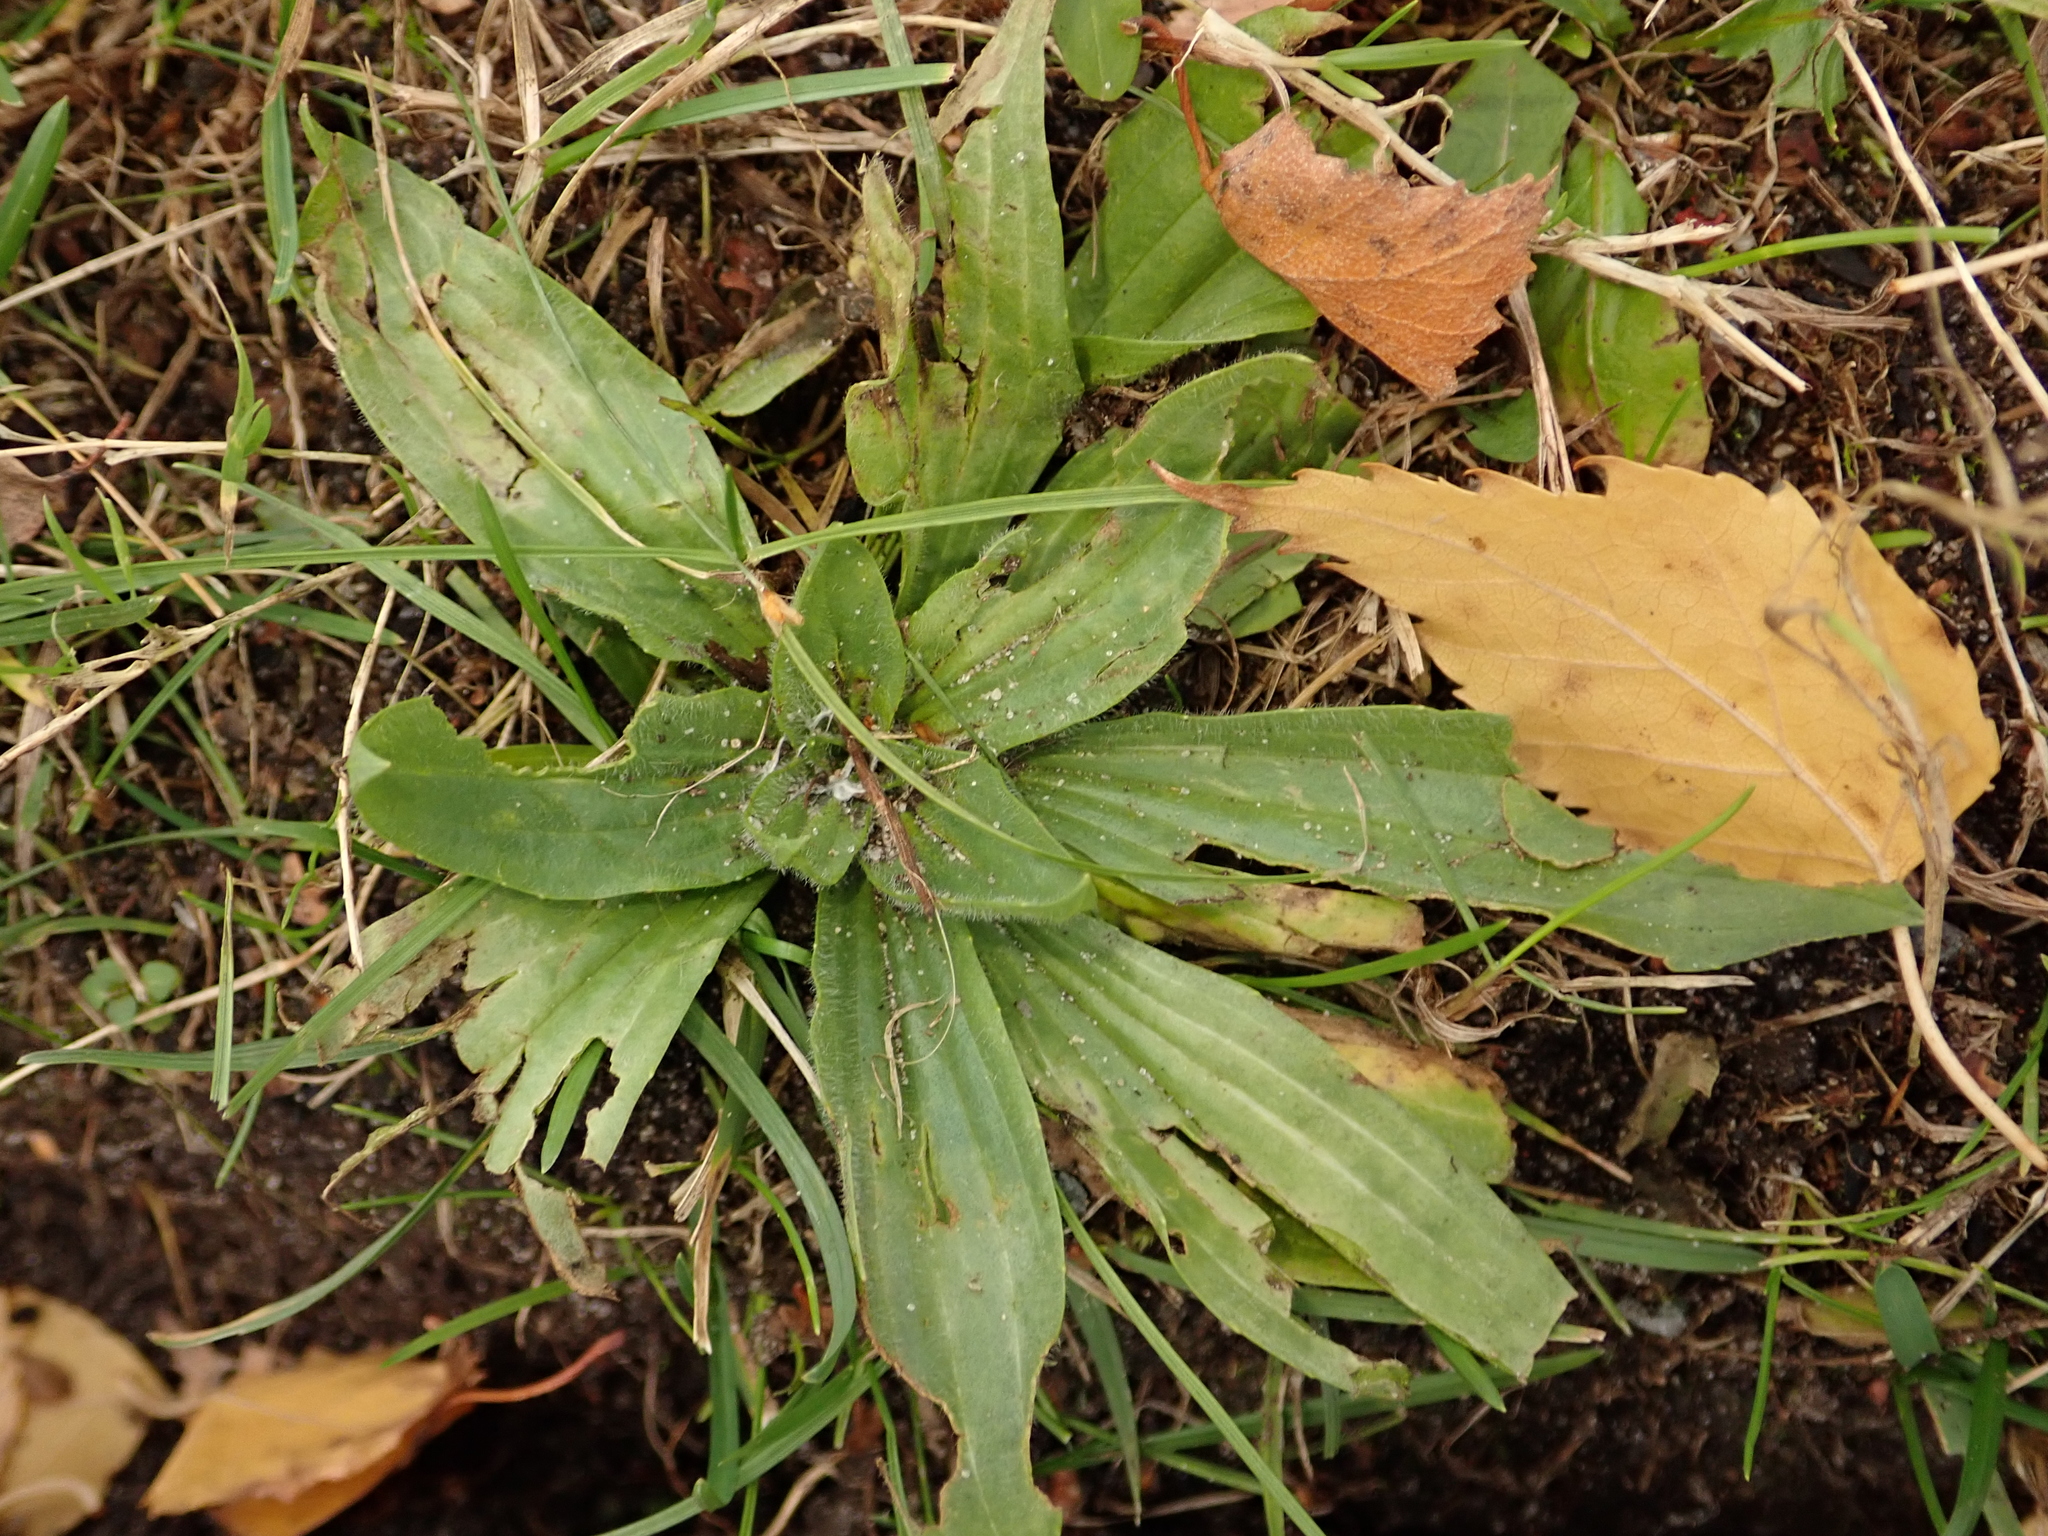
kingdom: Plantae
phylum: Tracheophyta
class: Magnoliopsida
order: Lamiales
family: Plantaginaceae
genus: Plantago
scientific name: Plantago lanceolata
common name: Ribwort plantain
